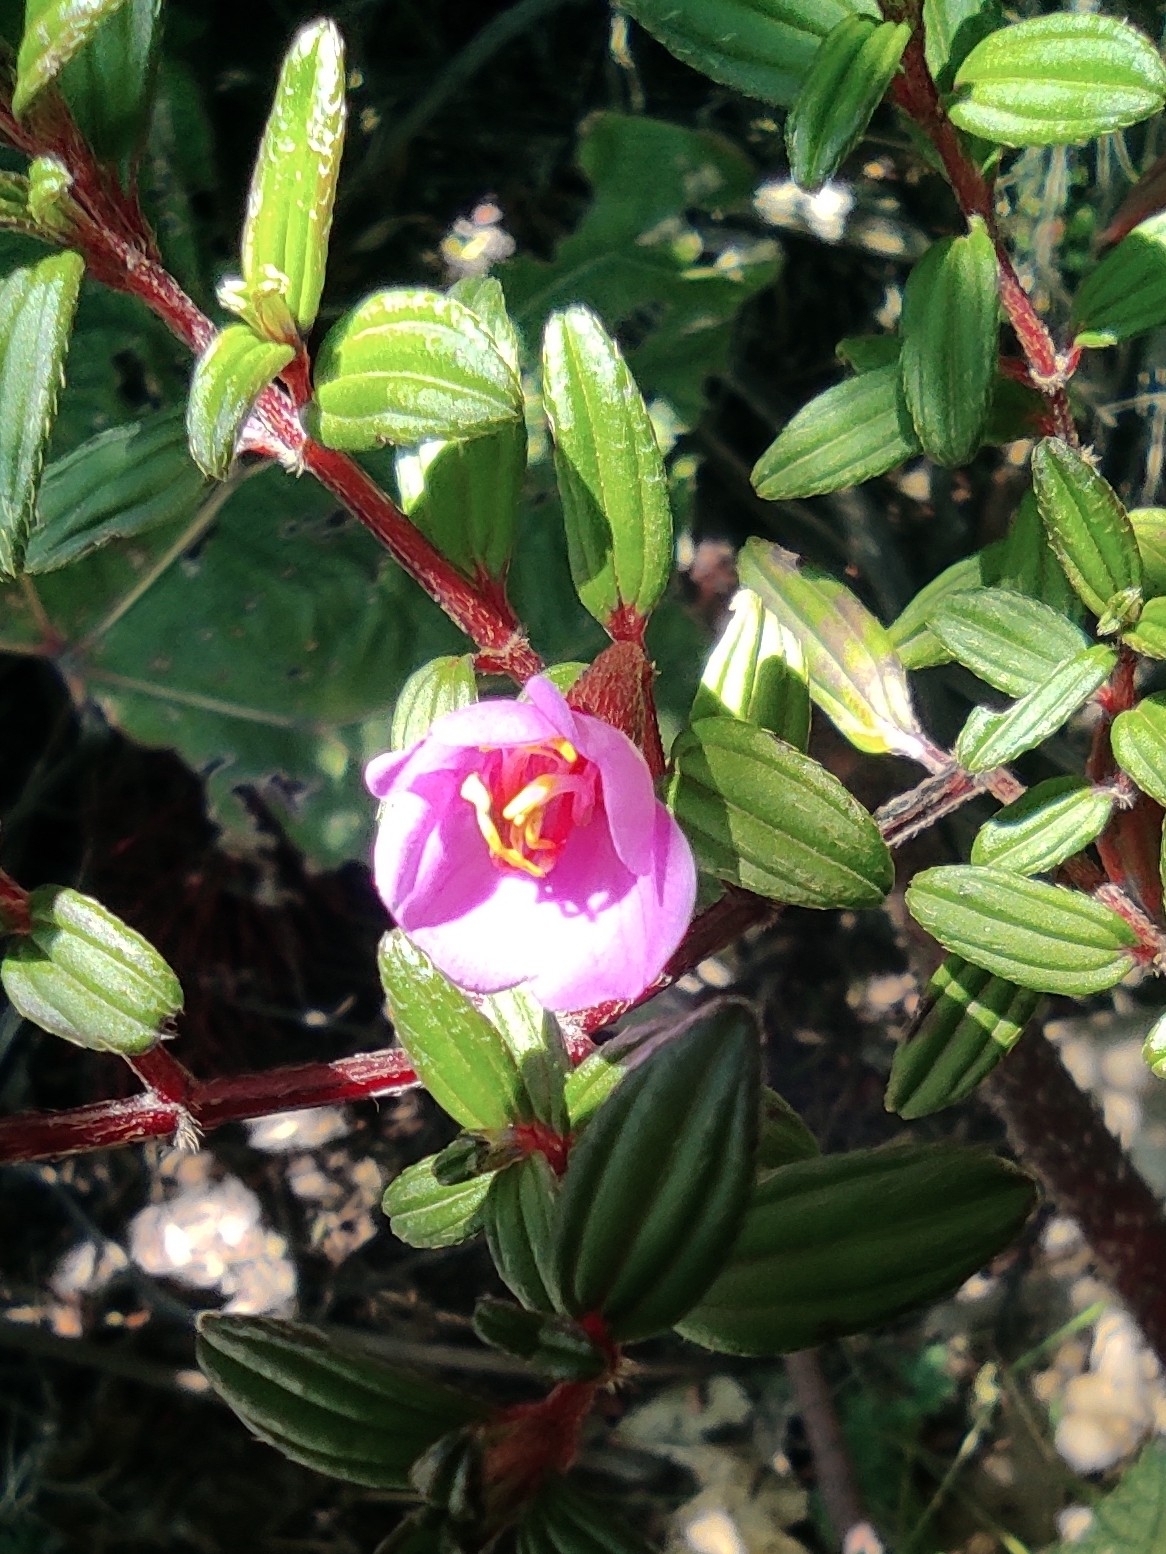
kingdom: Plantae
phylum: Tracheophyta
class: Magnoliopsida
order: Myrtales
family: Melastomataceae
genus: Monochaetum
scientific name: Monochaetum vulcanicum
